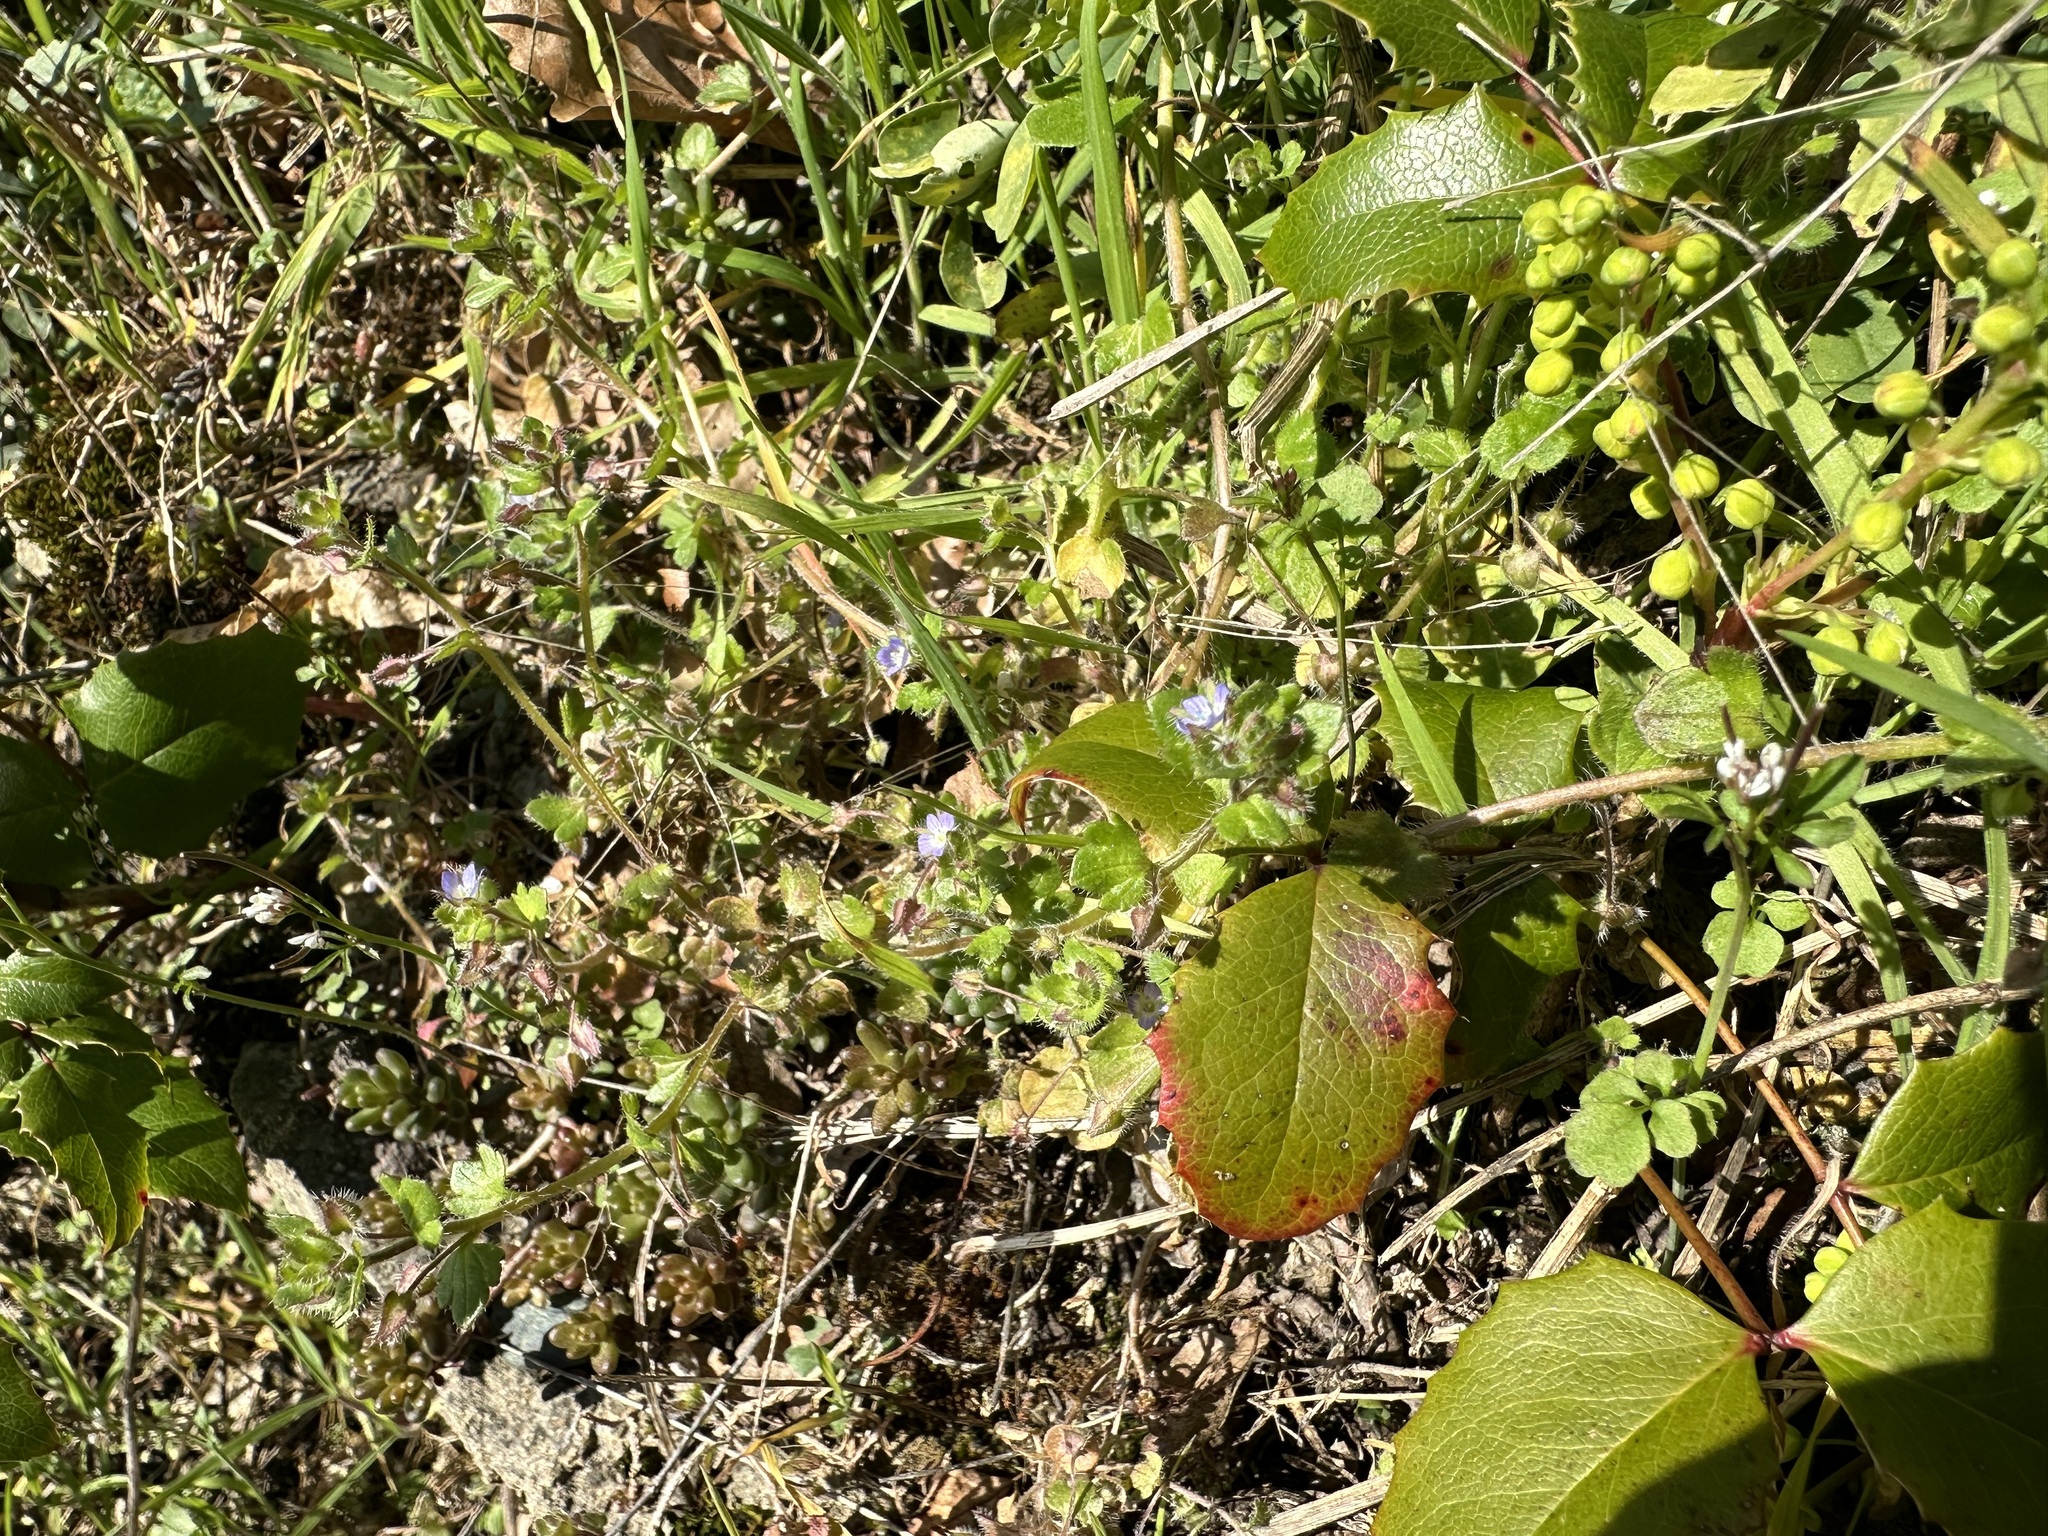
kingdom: Plantae
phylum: Tracheophyta
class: Magnoliopsida
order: Lamiales
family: Plantaginaceae
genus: Veronica
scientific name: Veronica hederifolia
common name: Ivy-leaved speedwell
